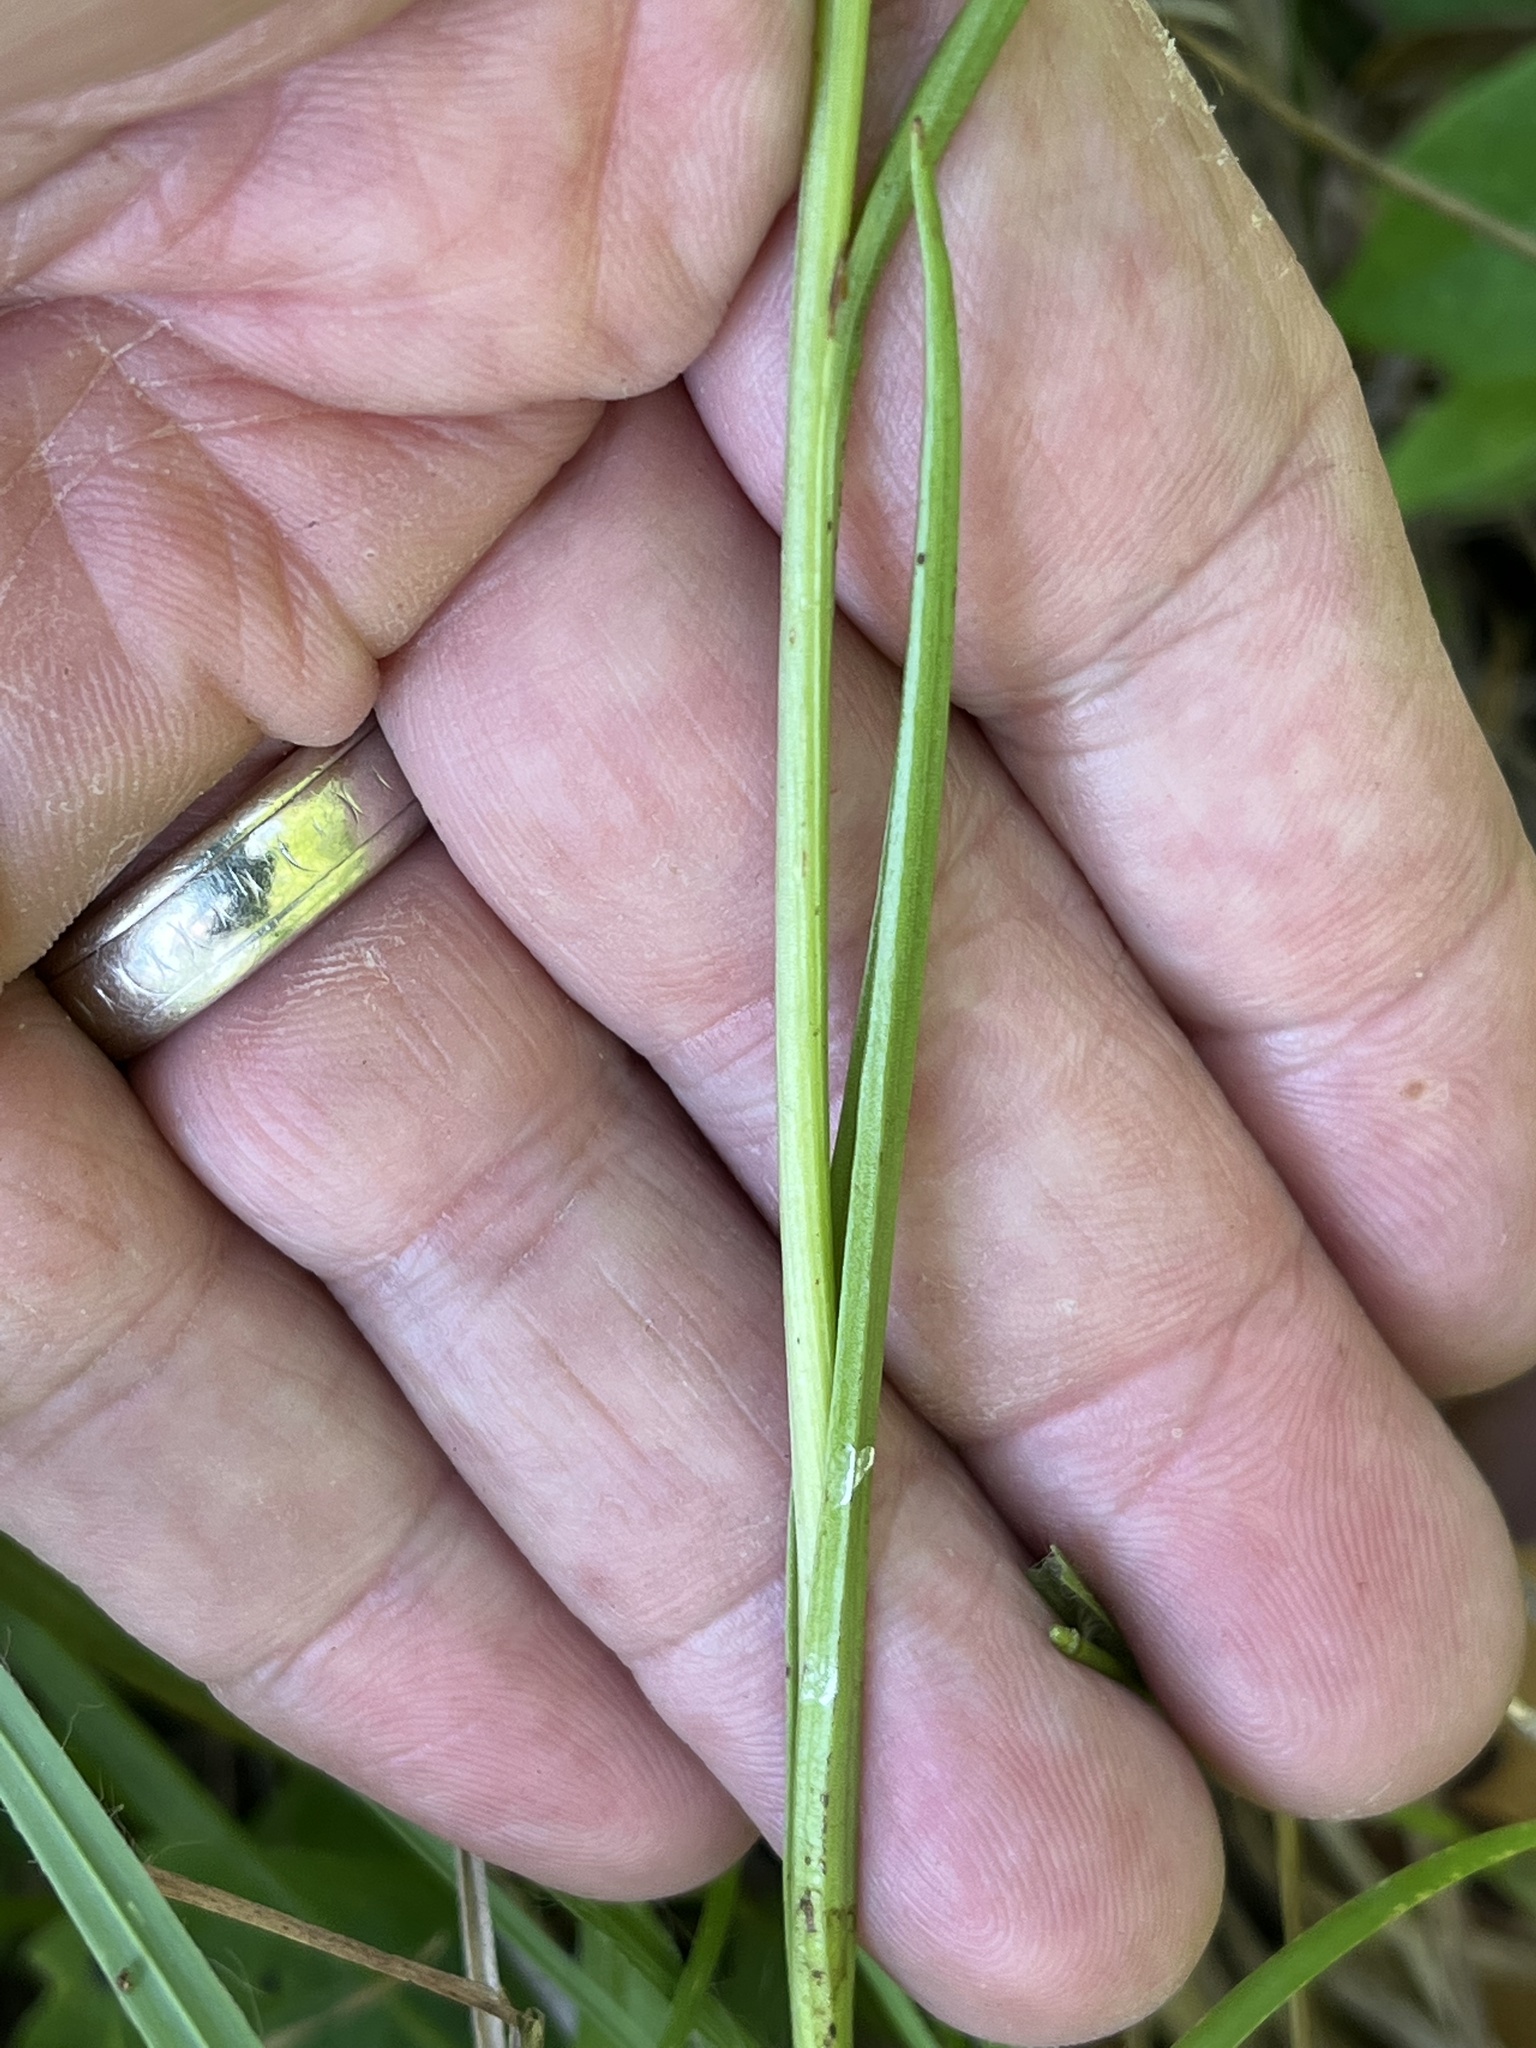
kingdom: Plantae
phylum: Tracheophyta
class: Liliopsida
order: Asparagales
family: Orchidaceae
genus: Platanthera
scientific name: Platanthera nivea
